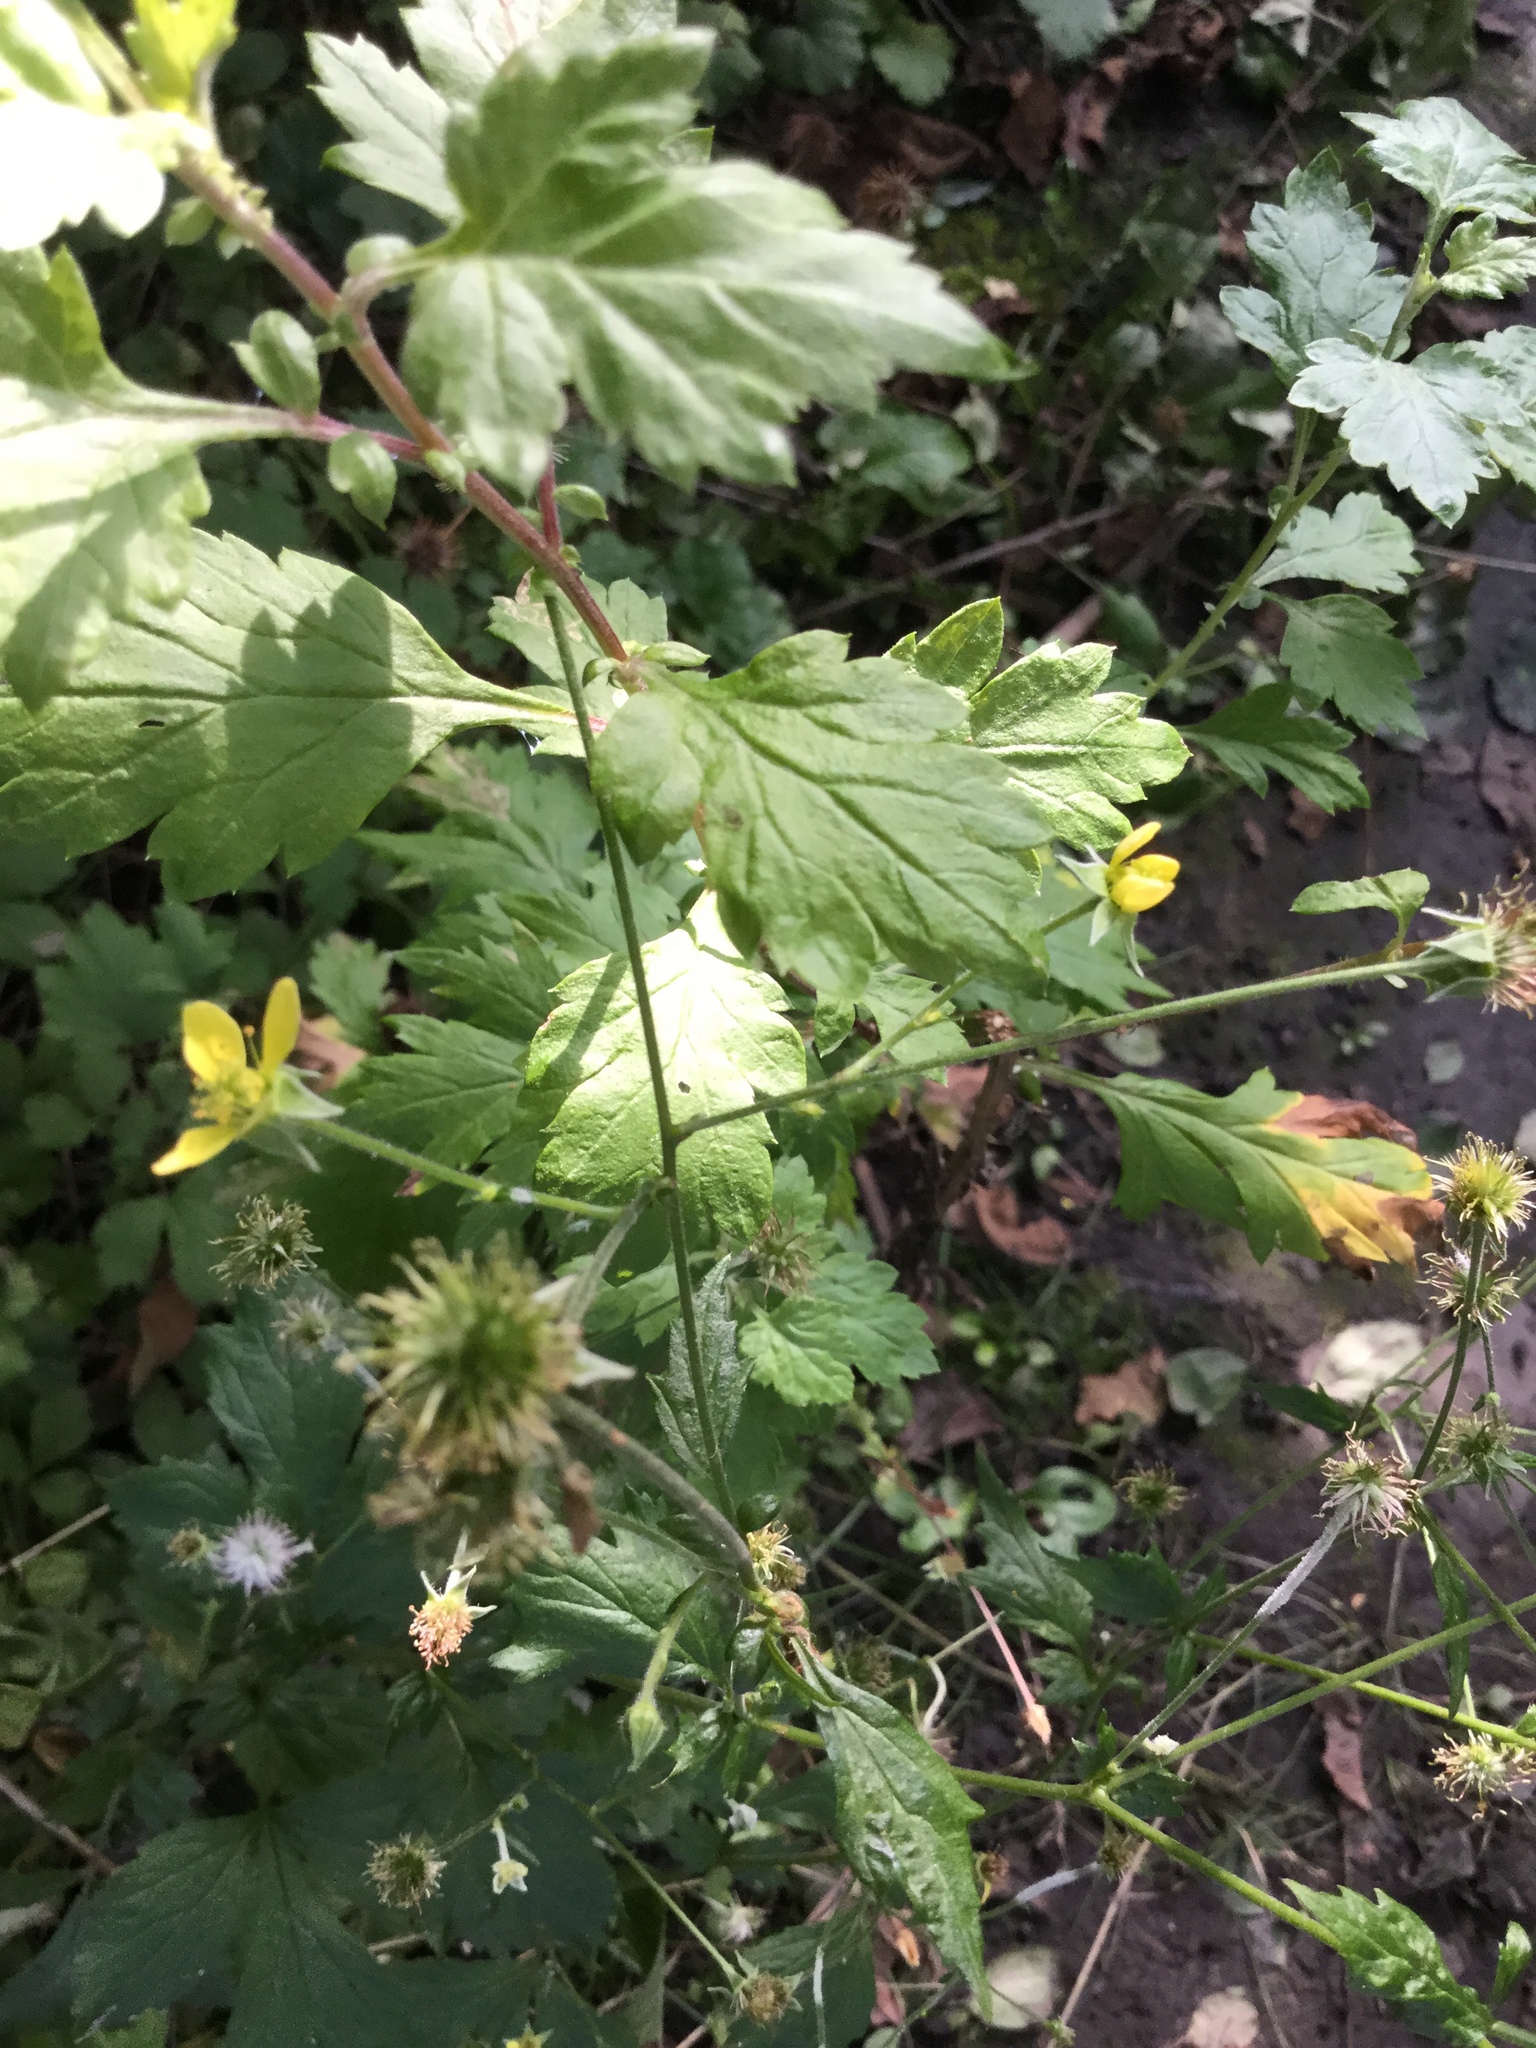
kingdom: Plantae
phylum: Tracheophyta
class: Magnoliopsida
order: Rosales
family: Rosaceae
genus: Geum
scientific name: Geum urbanum
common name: Wood avens
